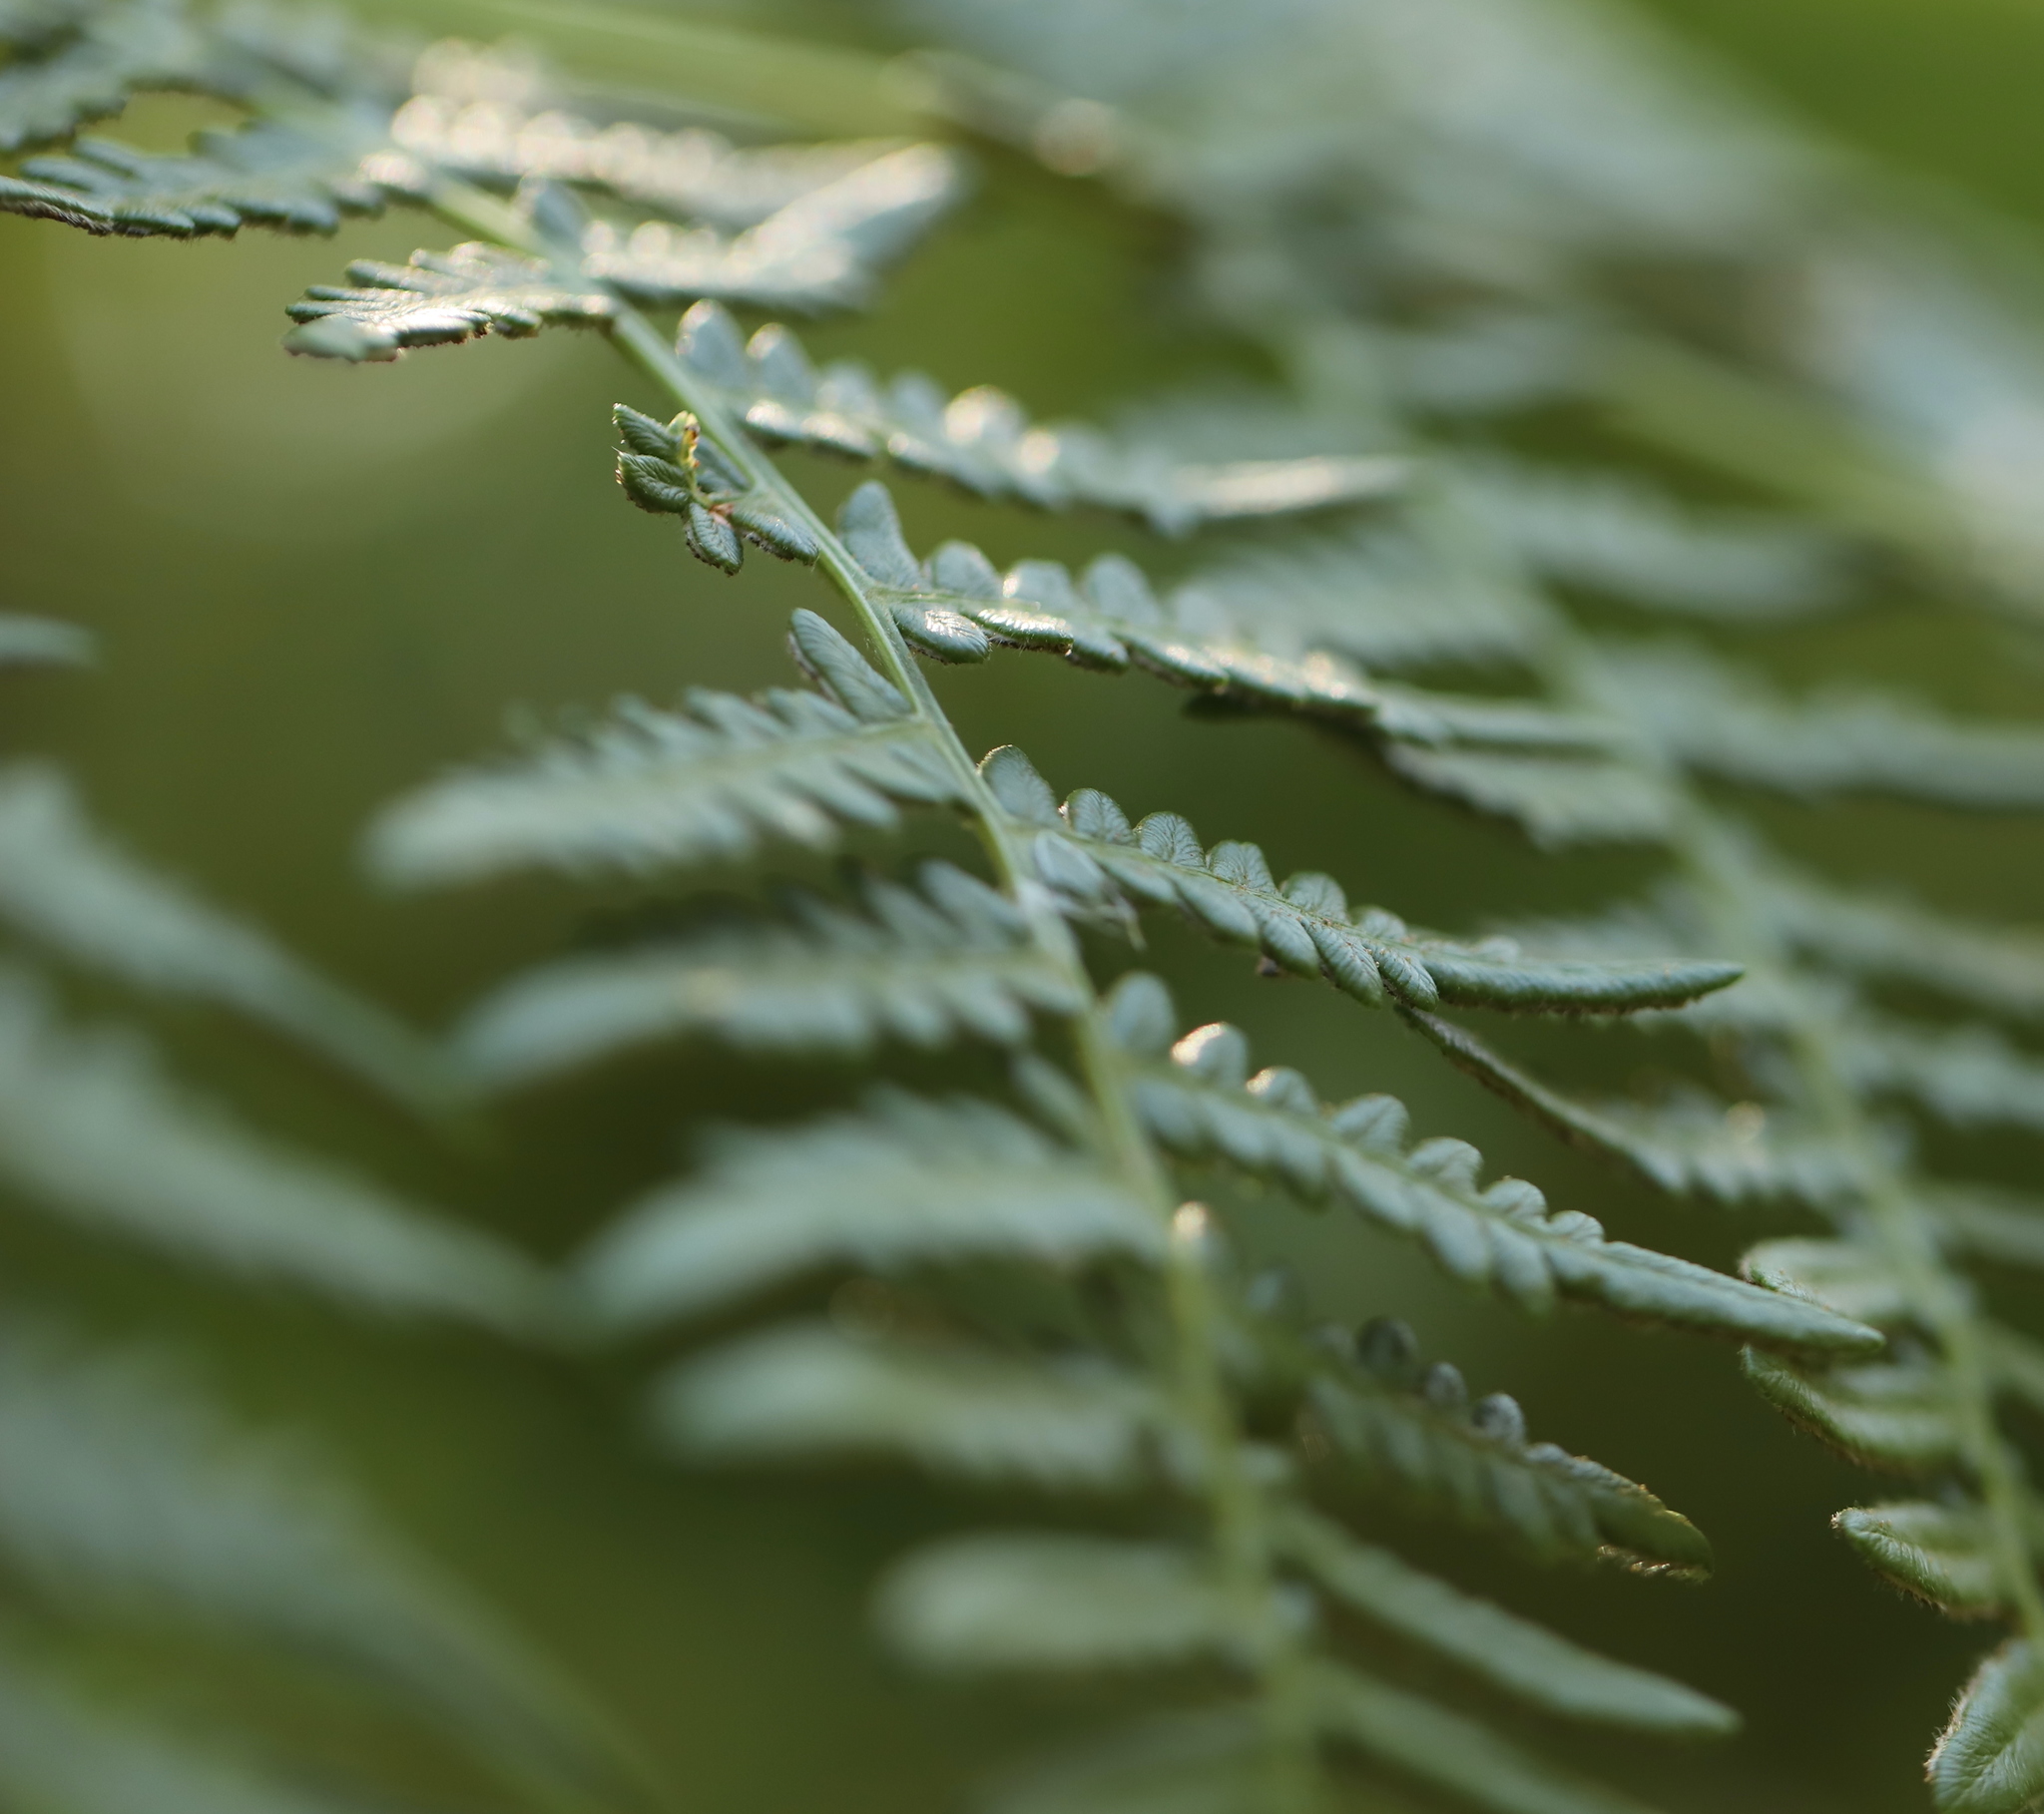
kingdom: Plantae
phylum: Tracheophyta
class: Polypodiopsida
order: Polypodiales
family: Dennstaedtiaceae
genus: Pteridium
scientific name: Pteridium aquilinum
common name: Bracken
